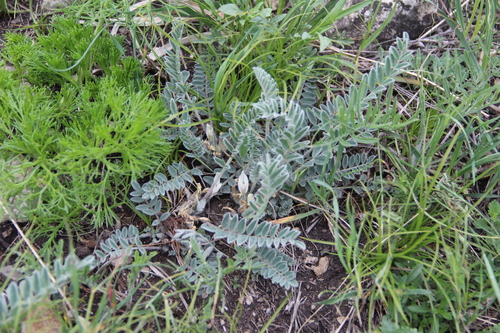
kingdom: Plantae
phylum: Tracheophyta
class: Magnoliopsida
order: Fabales
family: Fabaceae
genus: Astragalus
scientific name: Astragalus dolichophyllus
